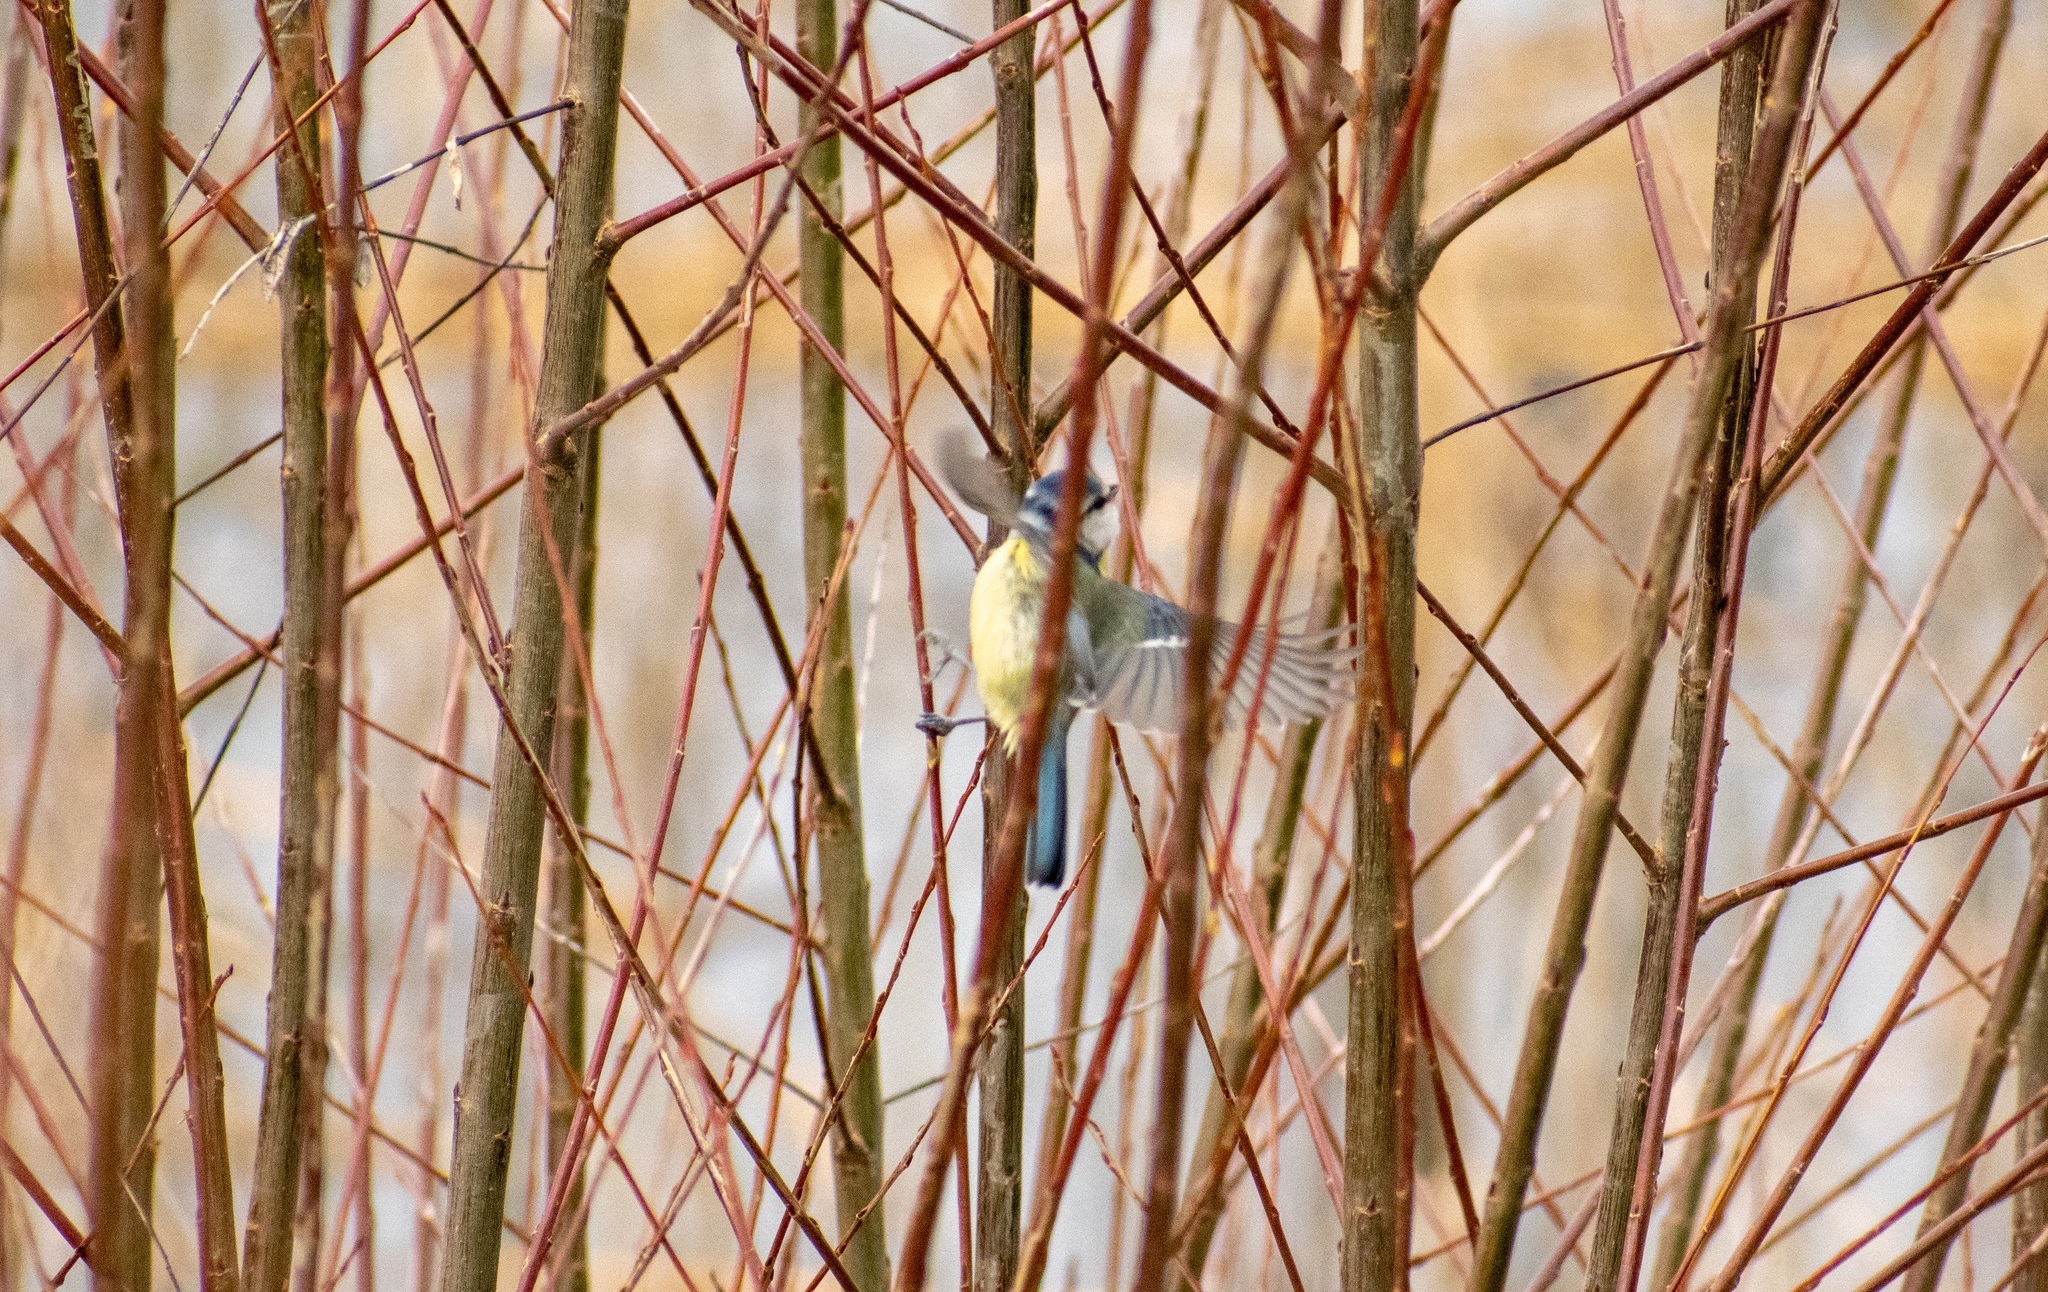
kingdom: Animalia
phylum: Chordata
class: Aves
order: Passeriformes
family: Paridae
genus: Cyanistes
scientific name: Cyanistes caeruleus
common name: Eurasian blue tit
